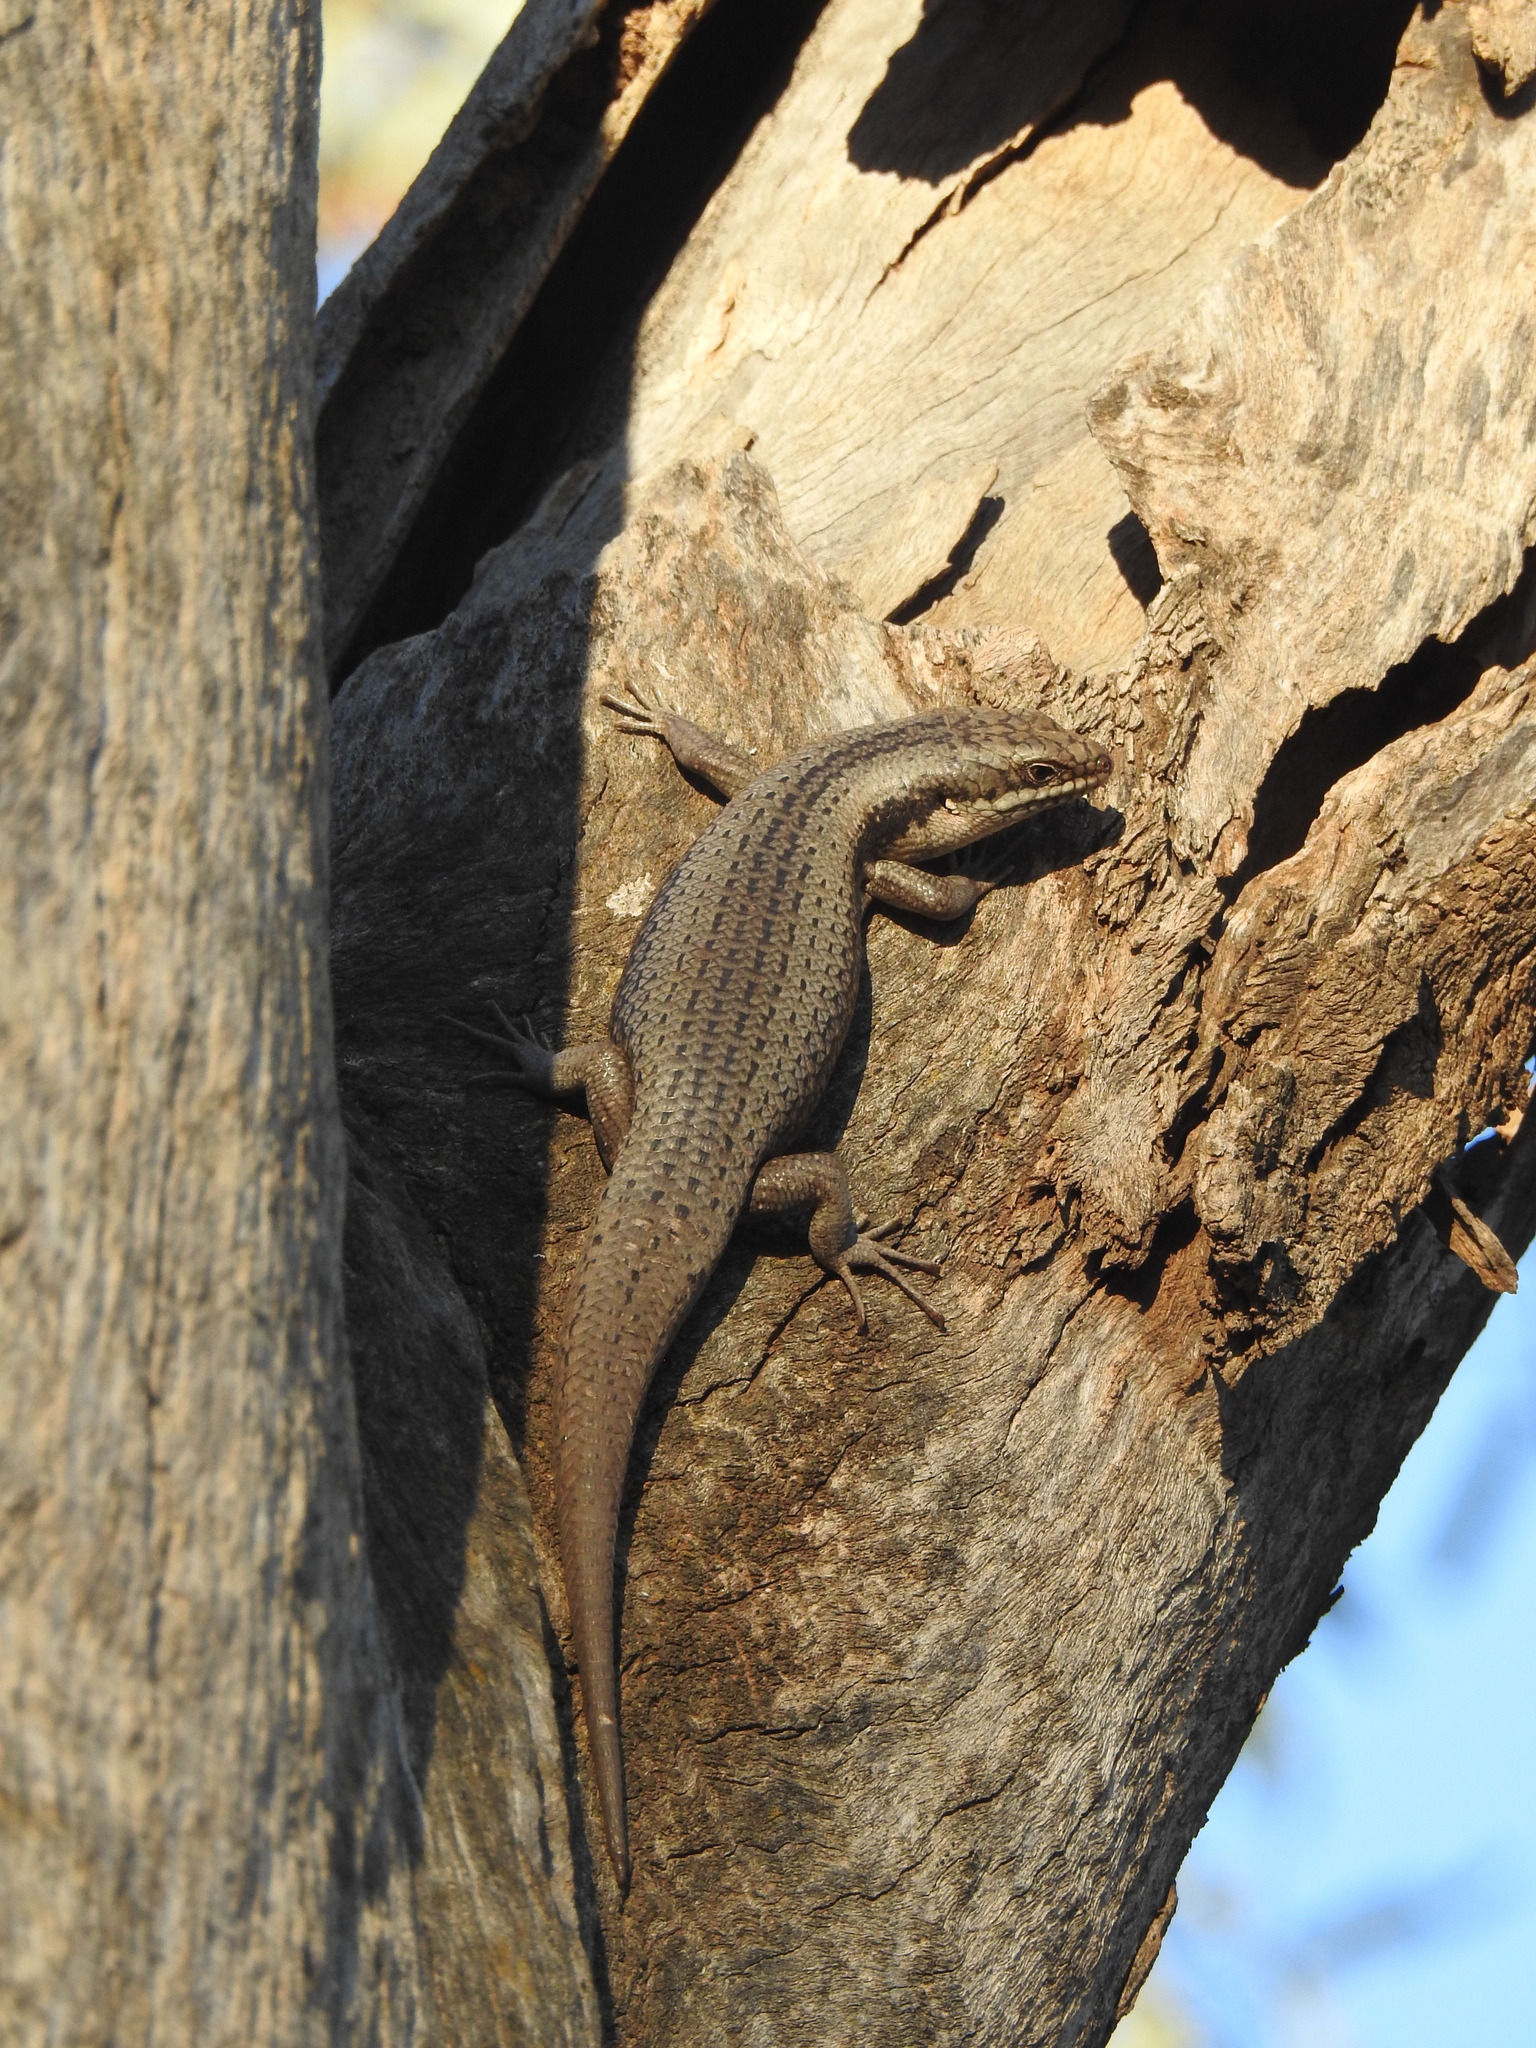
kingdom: Animalia
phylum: Chordata
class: Squamata
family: Scincidae
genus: Egernia
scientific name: Egernia striolata
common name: Tree skink
